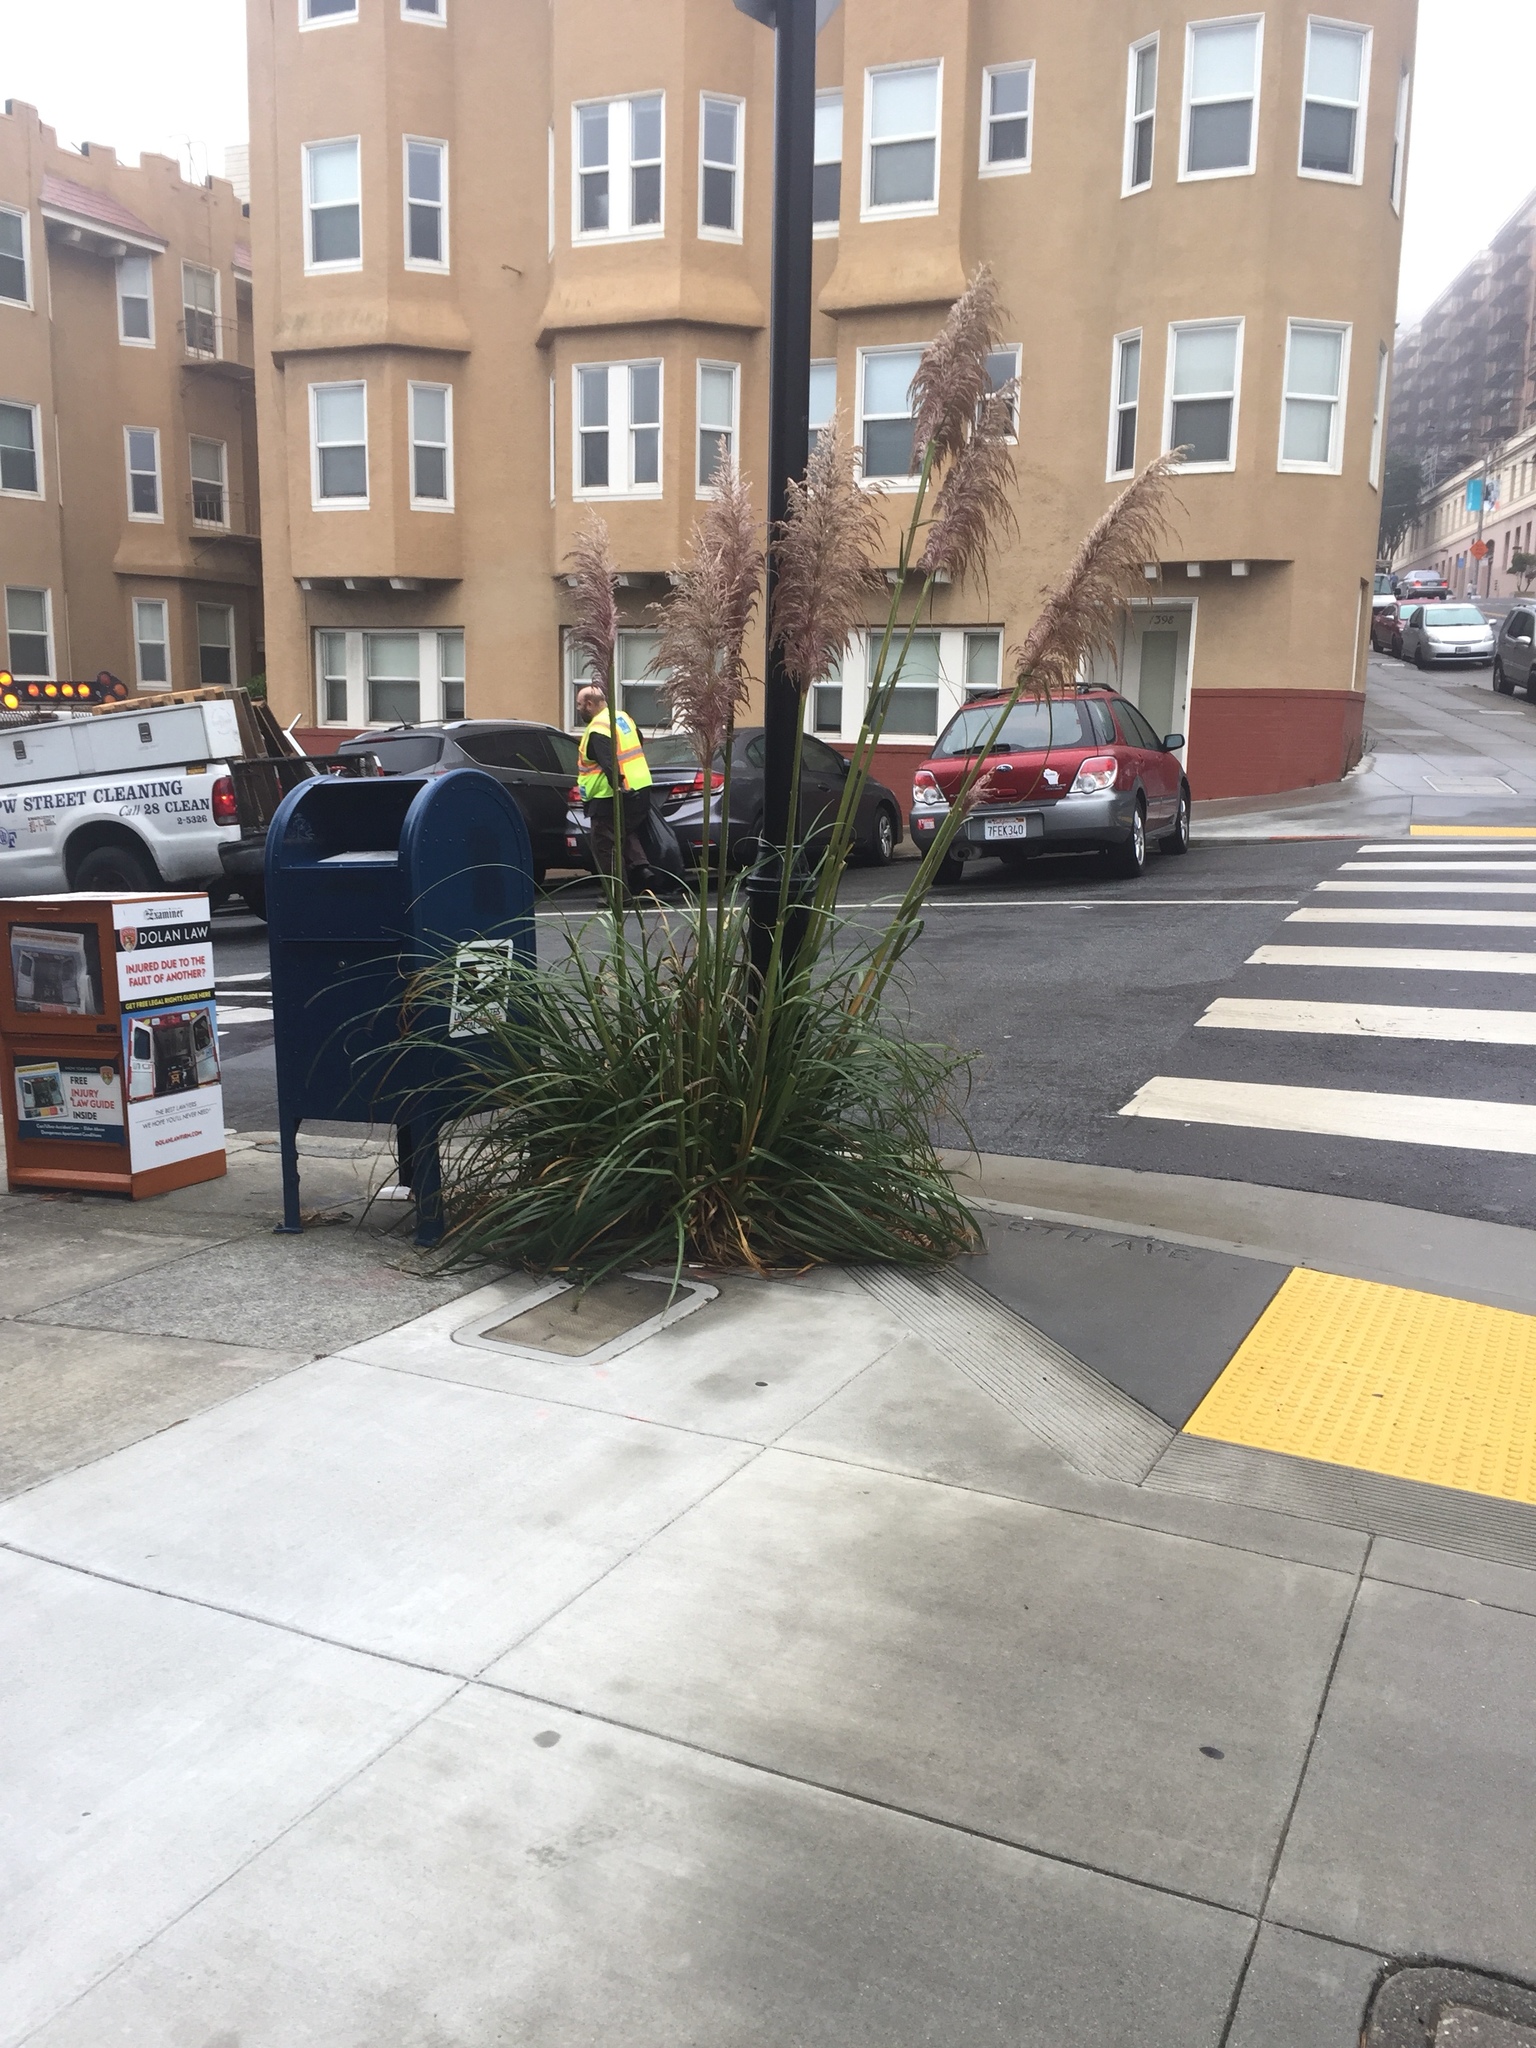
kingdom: Plantae
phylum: Tracheophyta
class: Liliopsida
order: Poales
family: Poaceae
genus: Cortaderia
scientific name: Cortaderia jubata
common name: Purple pampas grass
